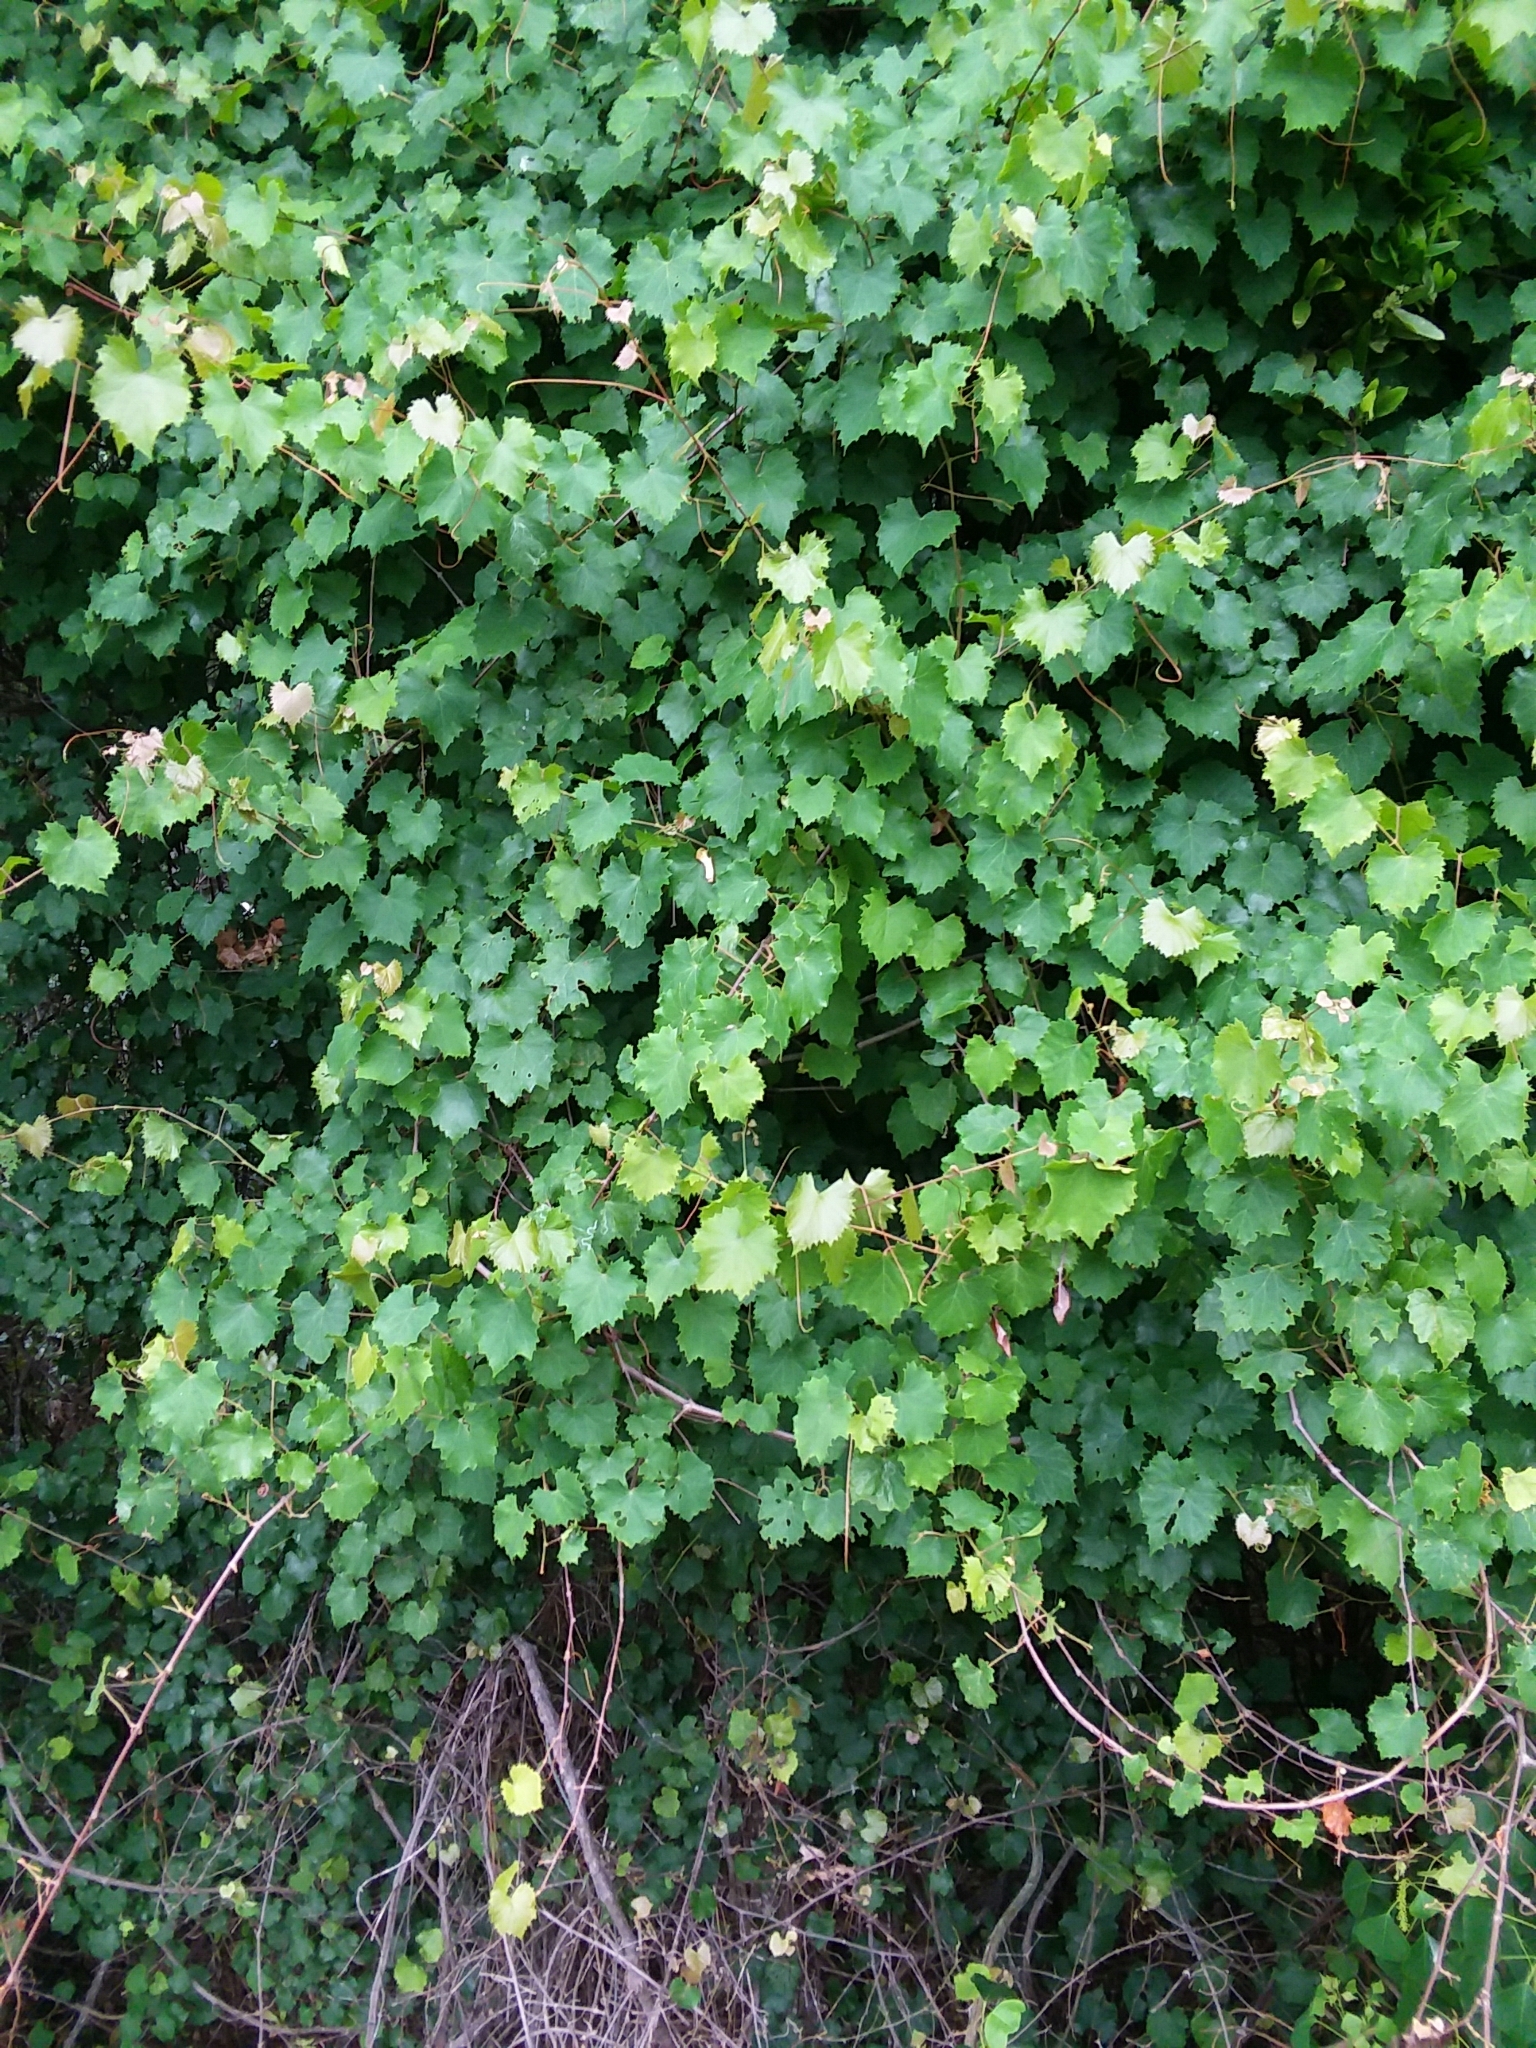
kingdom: Plantae
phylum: Tracheophyta
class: Magnoliopsida
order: Vitales
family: Vitaceae
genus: Vitis
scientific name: Vitis rotundifolia
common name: Muscadine grape
